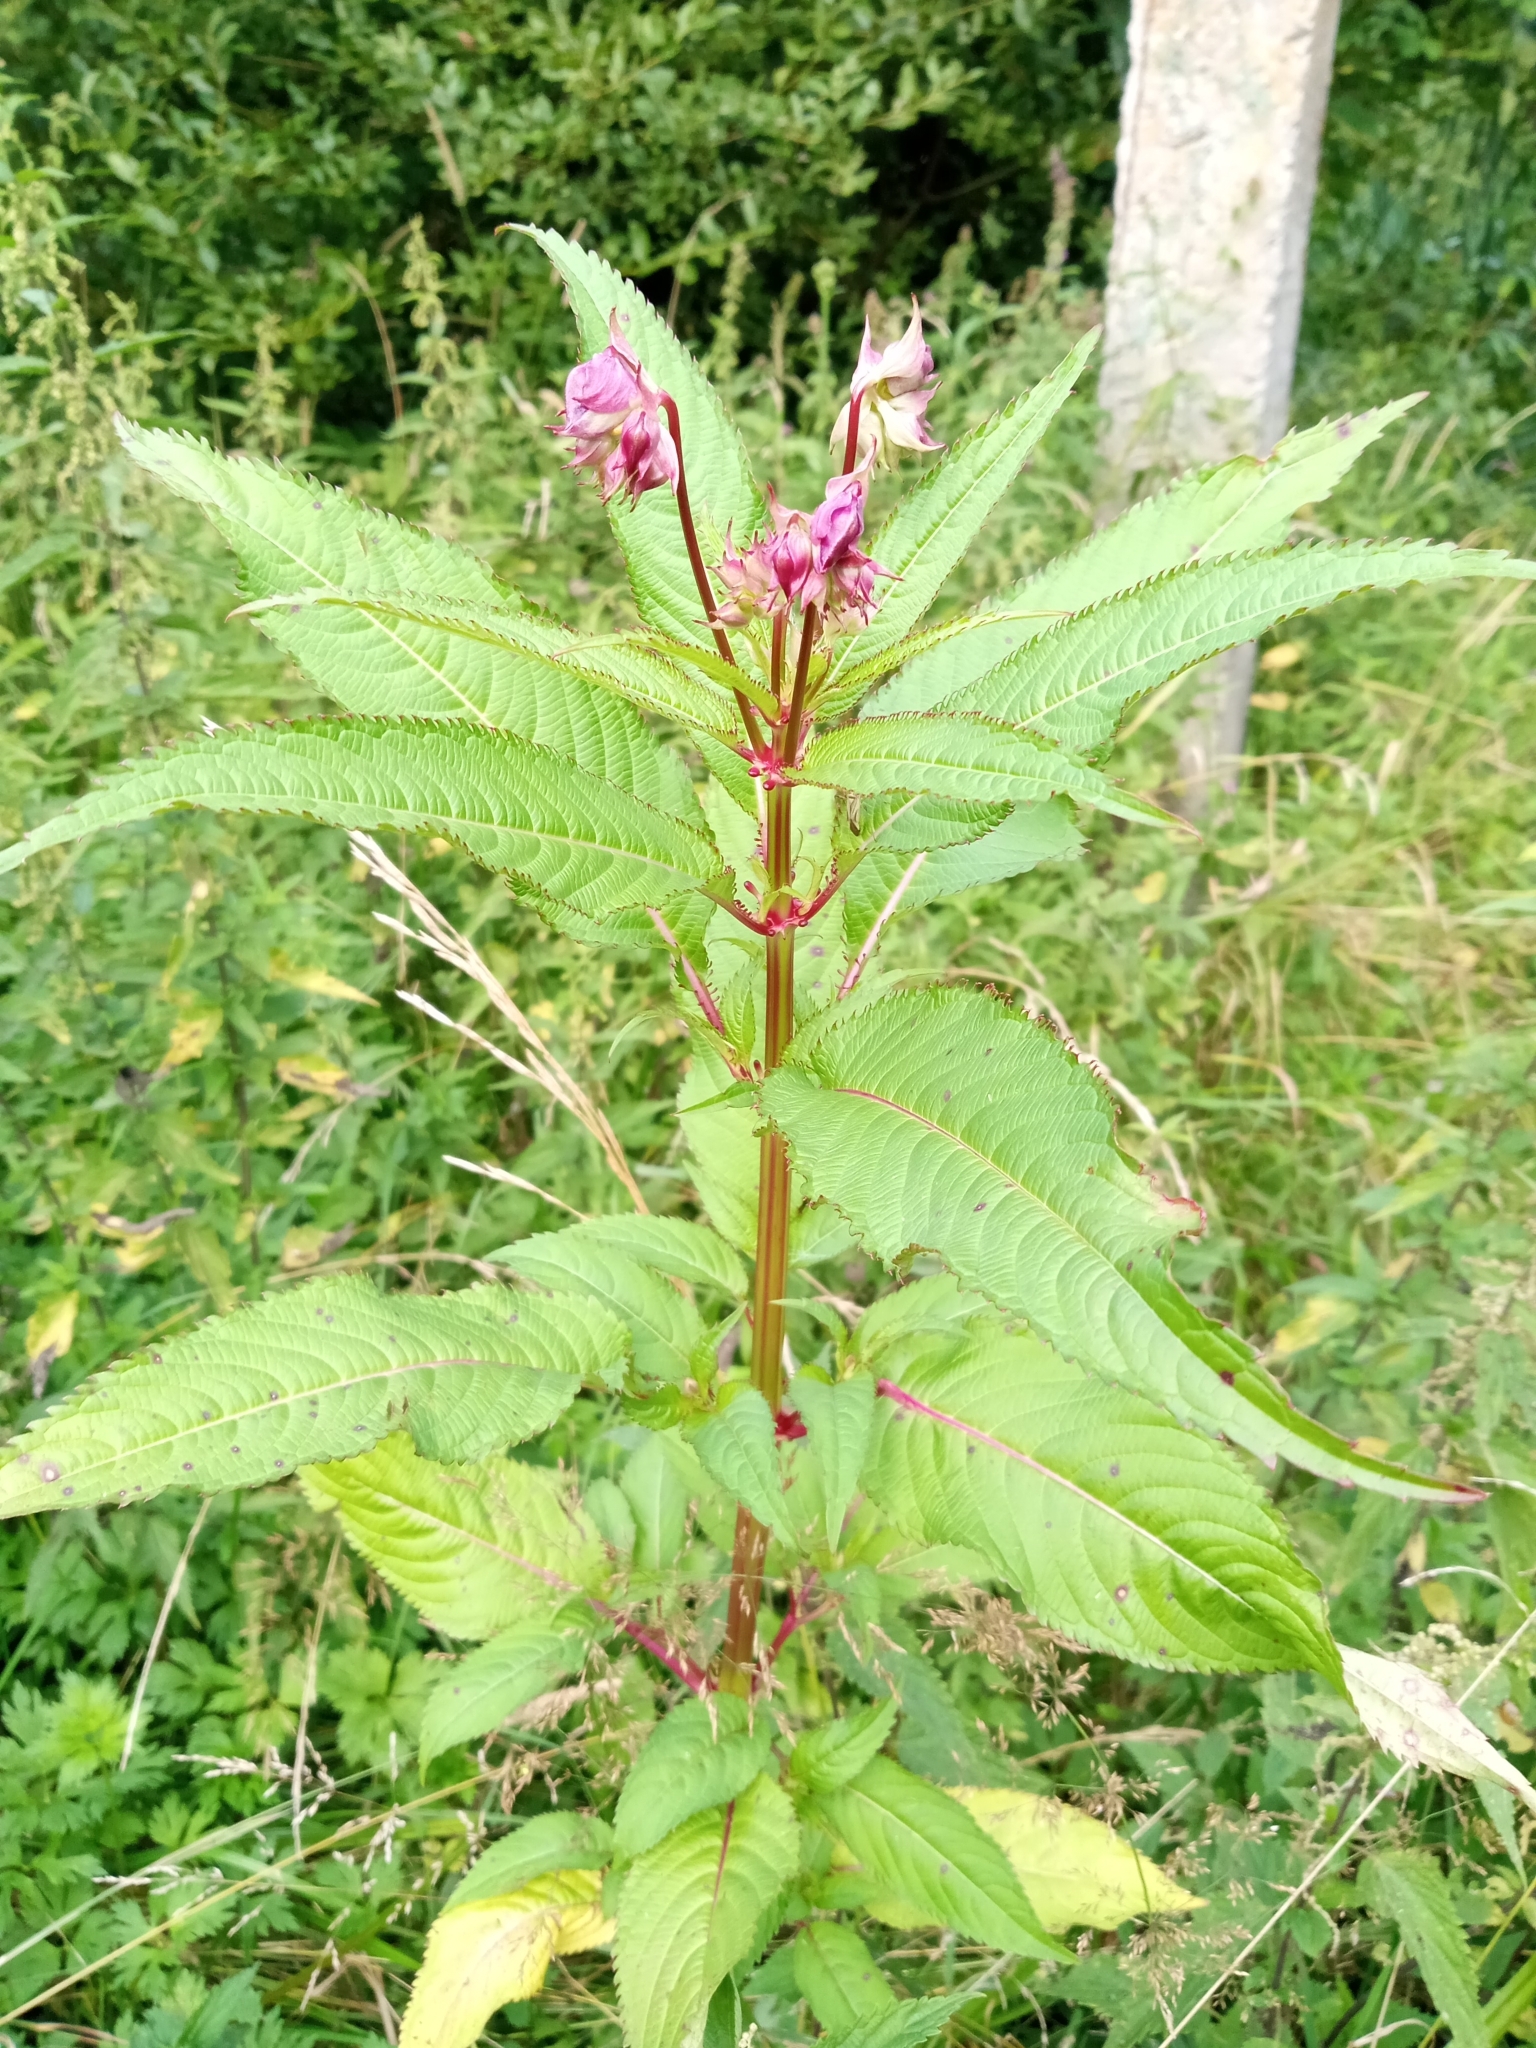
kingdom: Plantae
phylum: Tracheophyta
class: Magnoliopsida
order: Ericales
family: Balsaminaceae
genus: Impatiens
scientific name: Impatiens glandulifera
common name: Himalayan balsam
